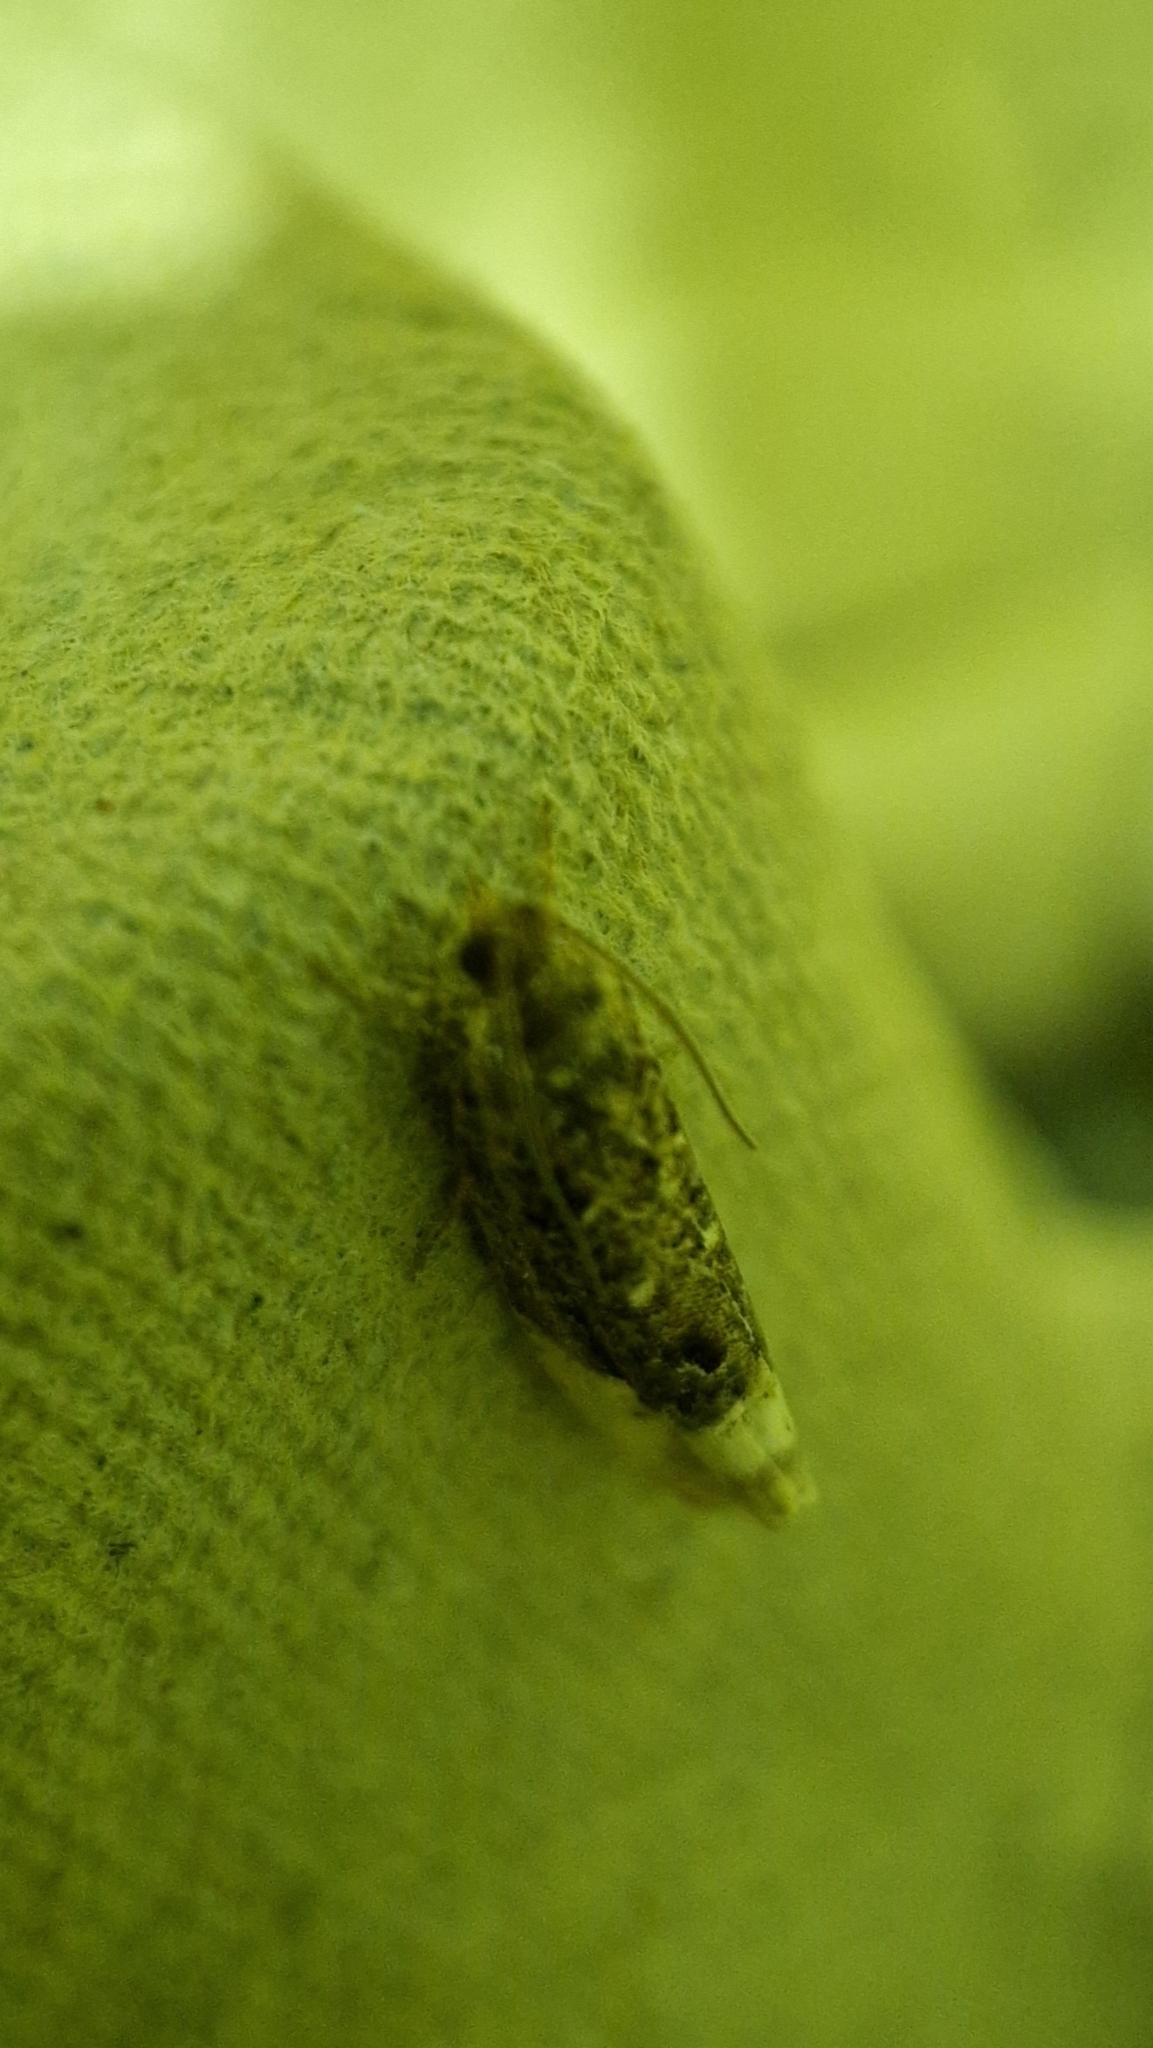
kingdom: Animalia
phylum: Arthropoda
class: Insecta
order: Lepidoptera
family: Tortricidae
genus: Hedya
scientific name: Hedya nubiferana
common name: Marbled orchard tortrix
